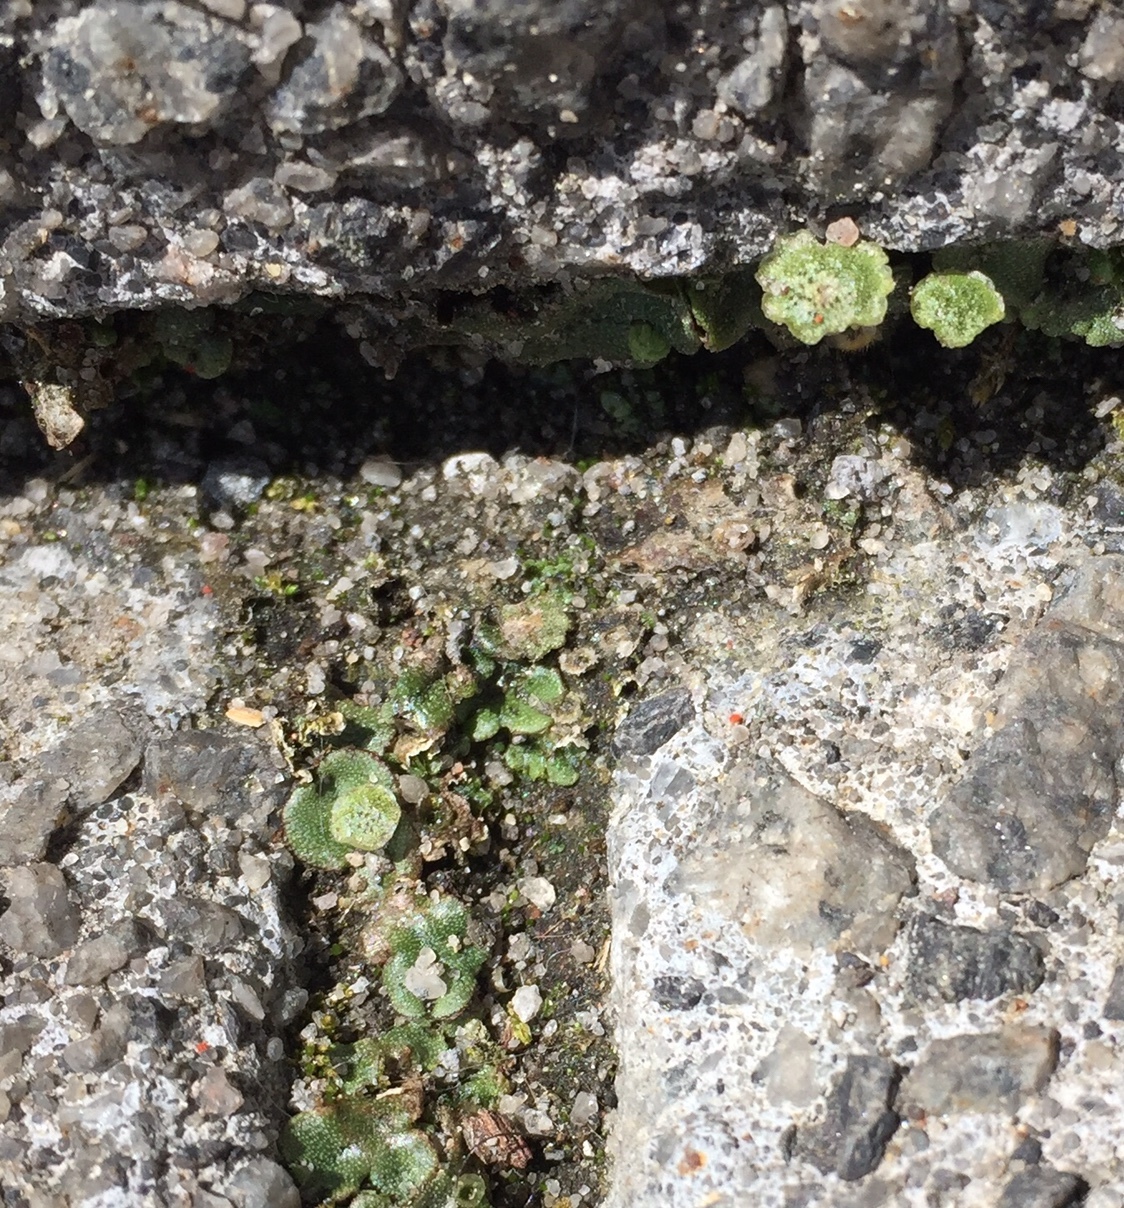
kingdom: Plantae
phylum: Marchantiophyta
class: Marchantiopsida
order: Marchantiales
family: Marchantiaceae
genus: Marchantia
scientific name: Marchantia polymorpha
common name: Common liverwort
